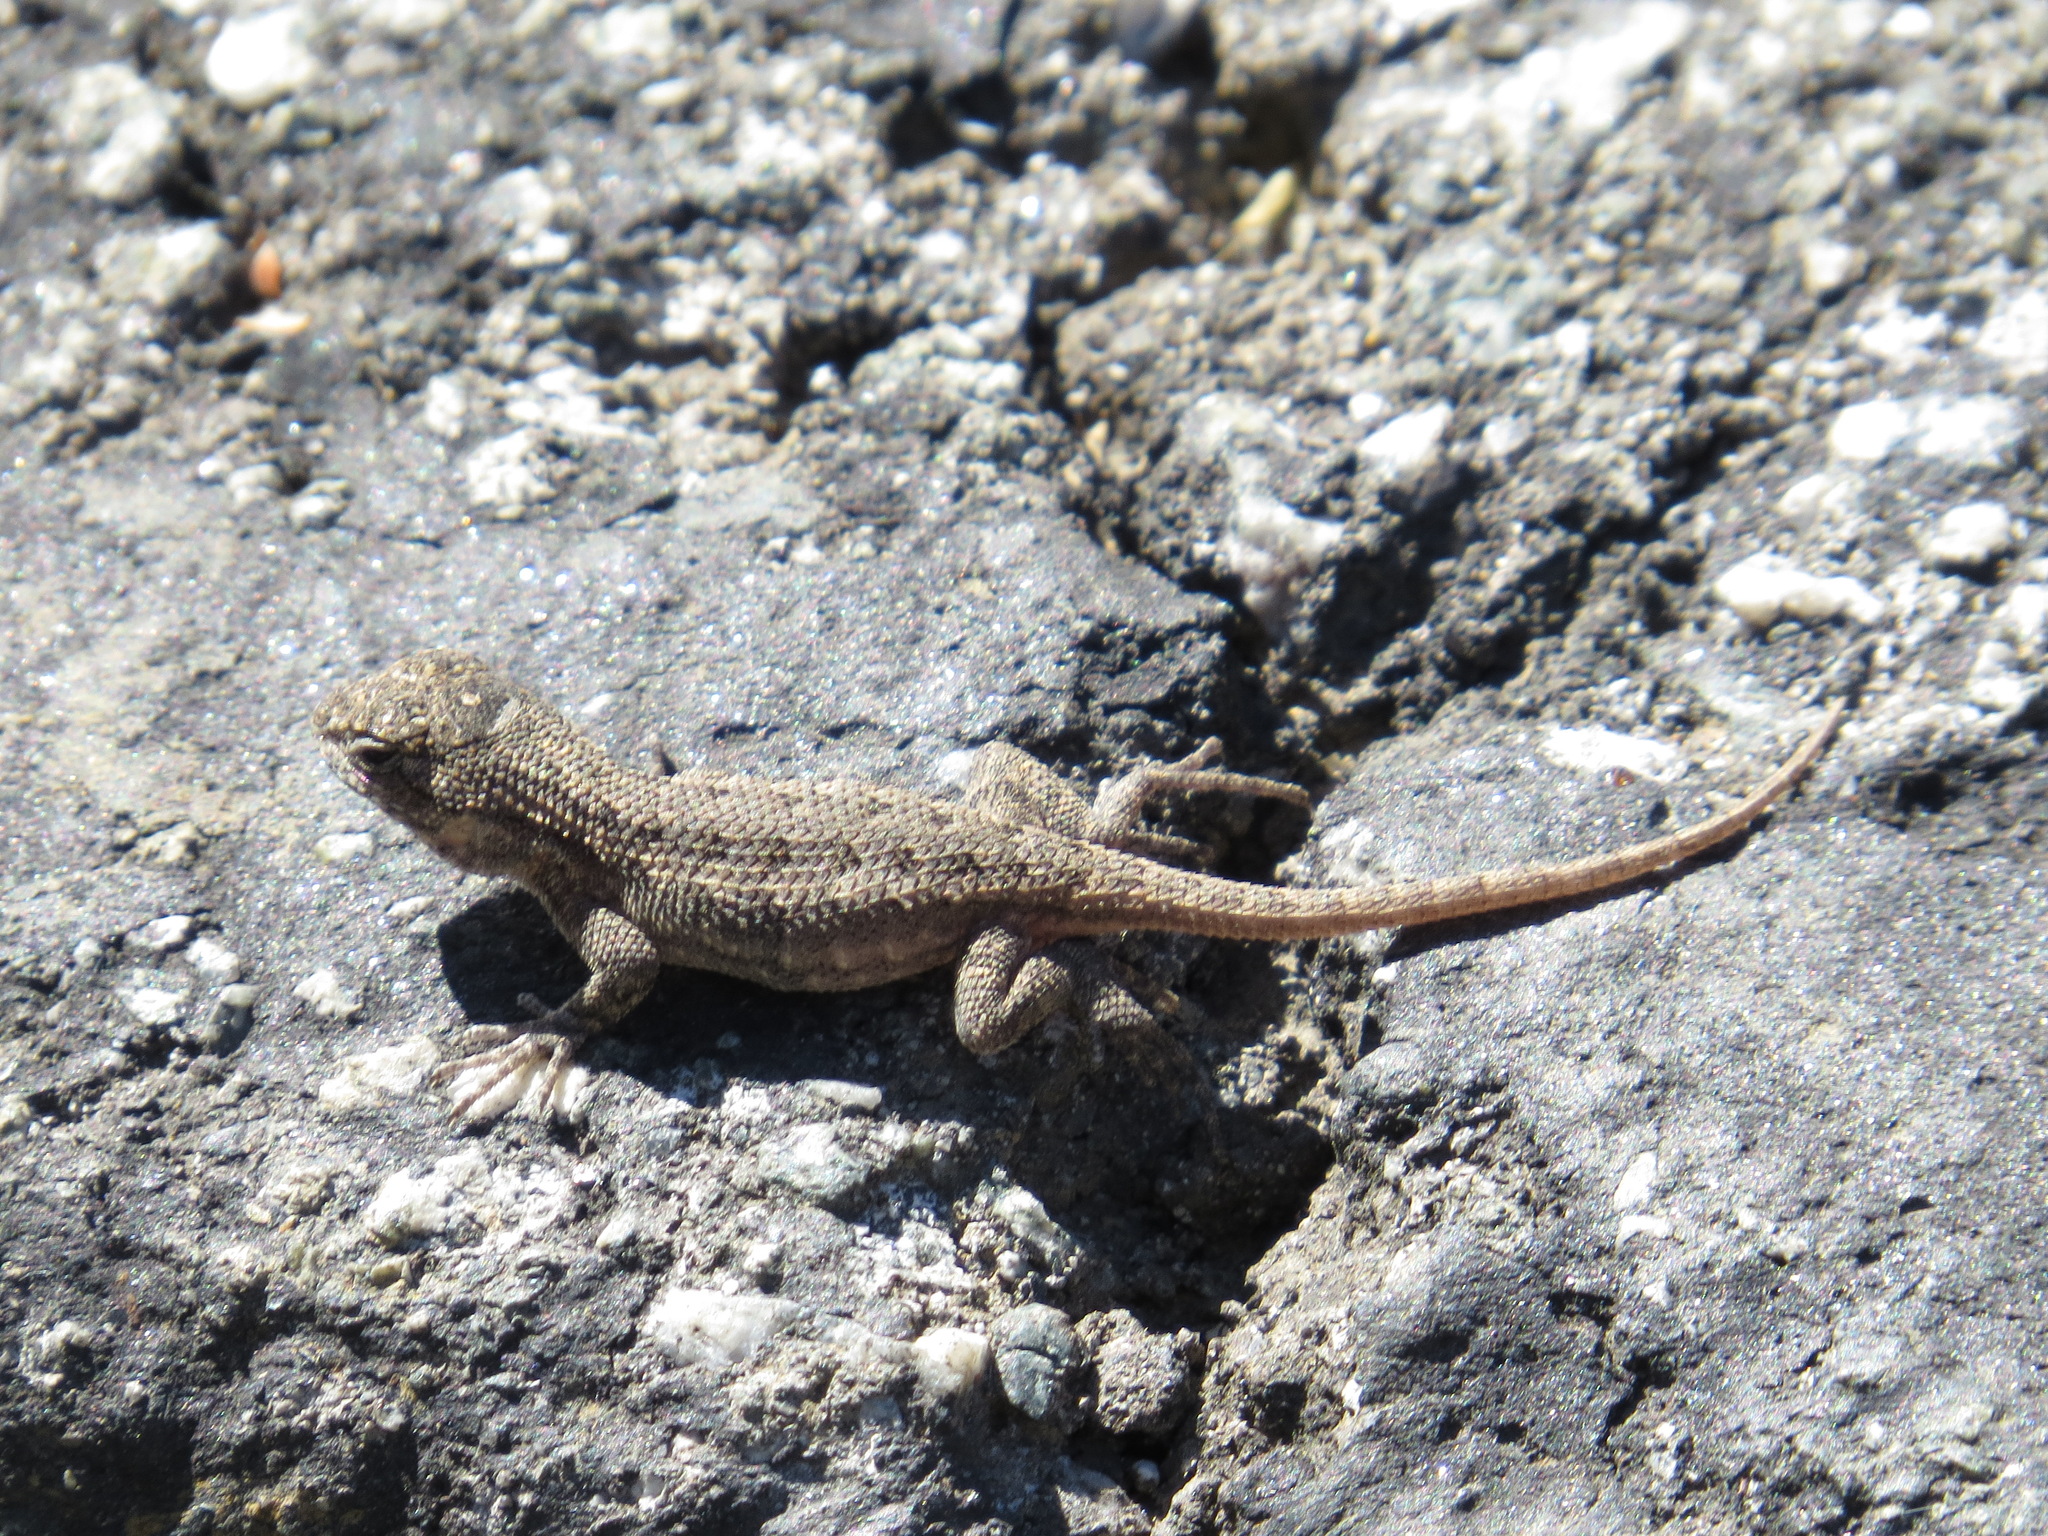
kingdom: Animalia
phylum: Chordata
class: Squamata
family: Phrynosomatidae
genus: Sceloporus
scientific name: Sceloporus occidentalis
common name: Western fence lizard
